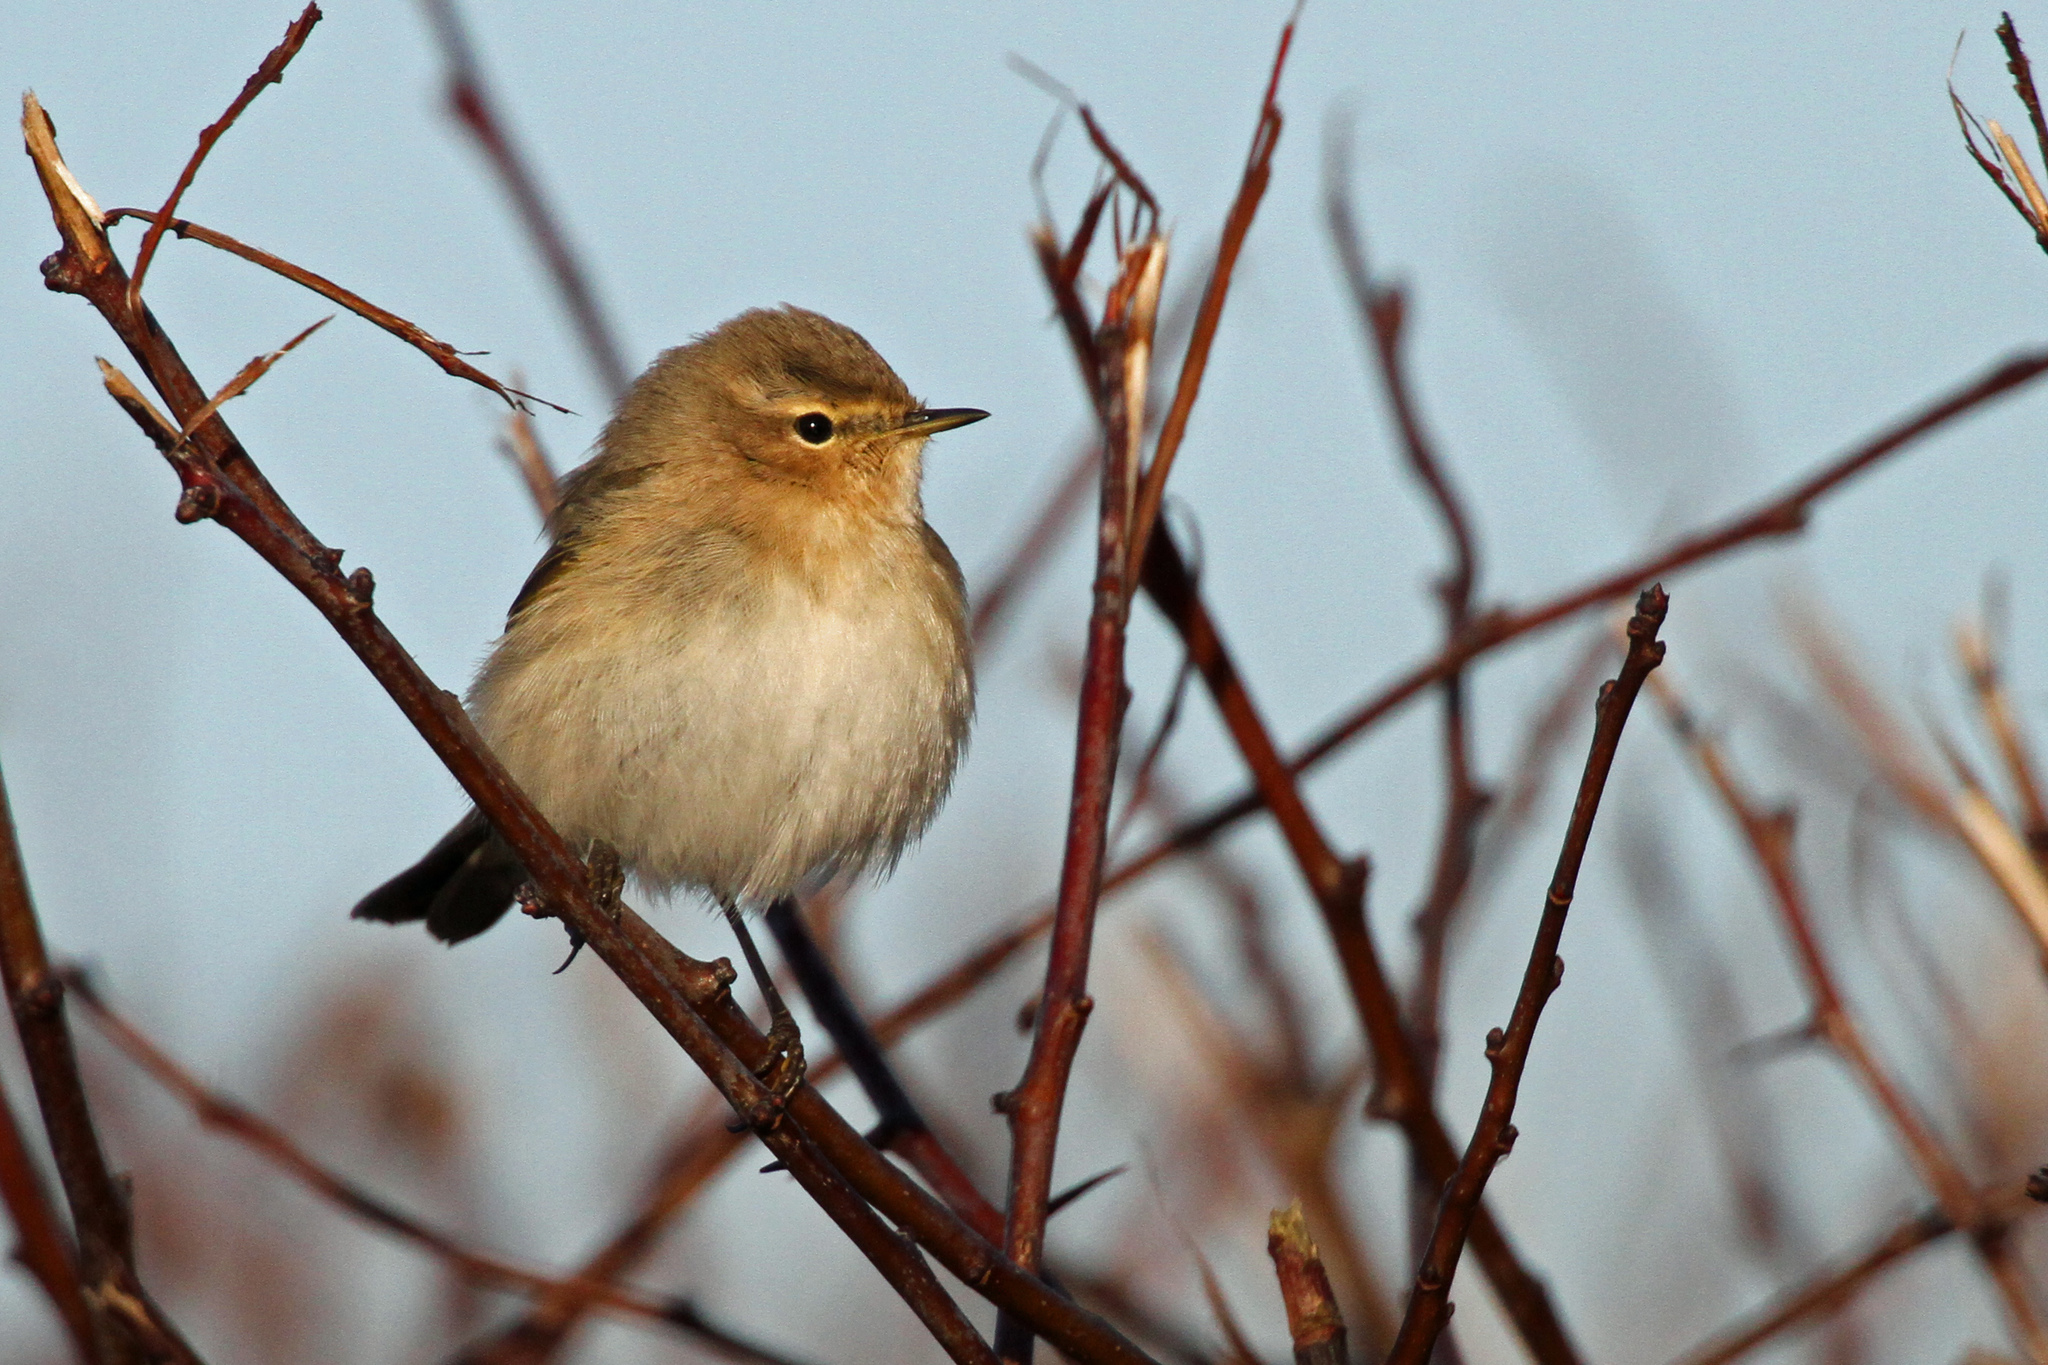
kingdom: Animalia
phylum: Chordata
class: Aves
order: Passeriformes
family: Phylloscopidae
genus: Phylloscopus
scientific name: Phylloscopus collybita
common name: Common chiffchaff
